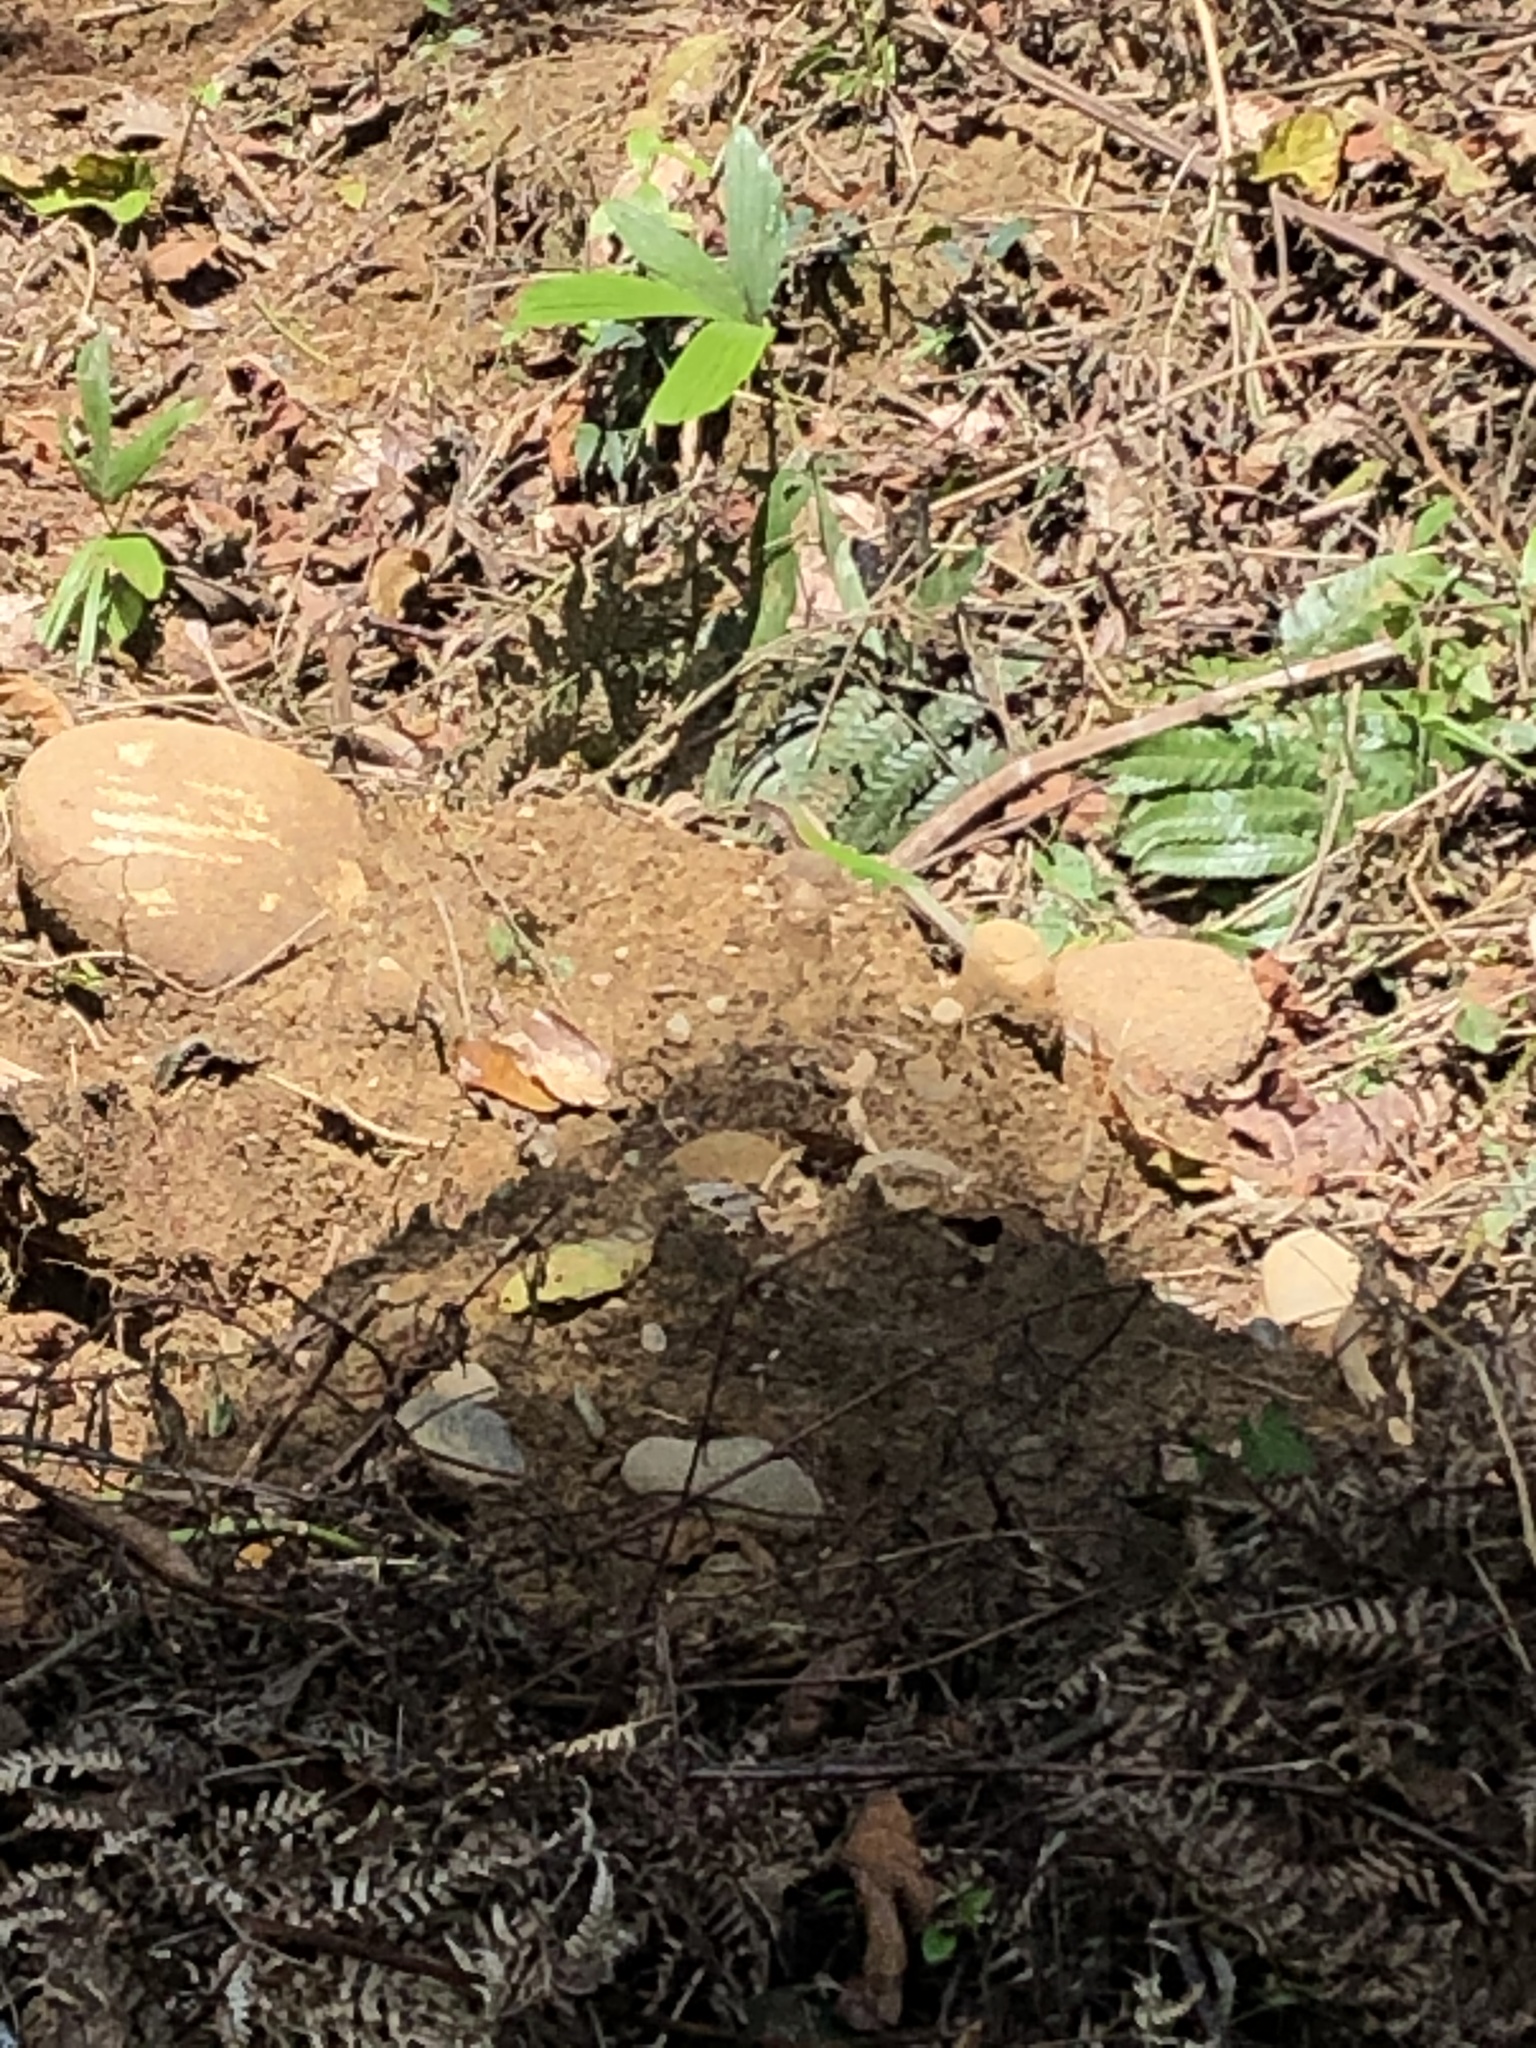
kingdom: Animalia
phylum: Chordata
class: Squamata
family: Teiidae
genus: Ameiva
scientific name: Ameiva ameiva
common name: Giant ameiva
